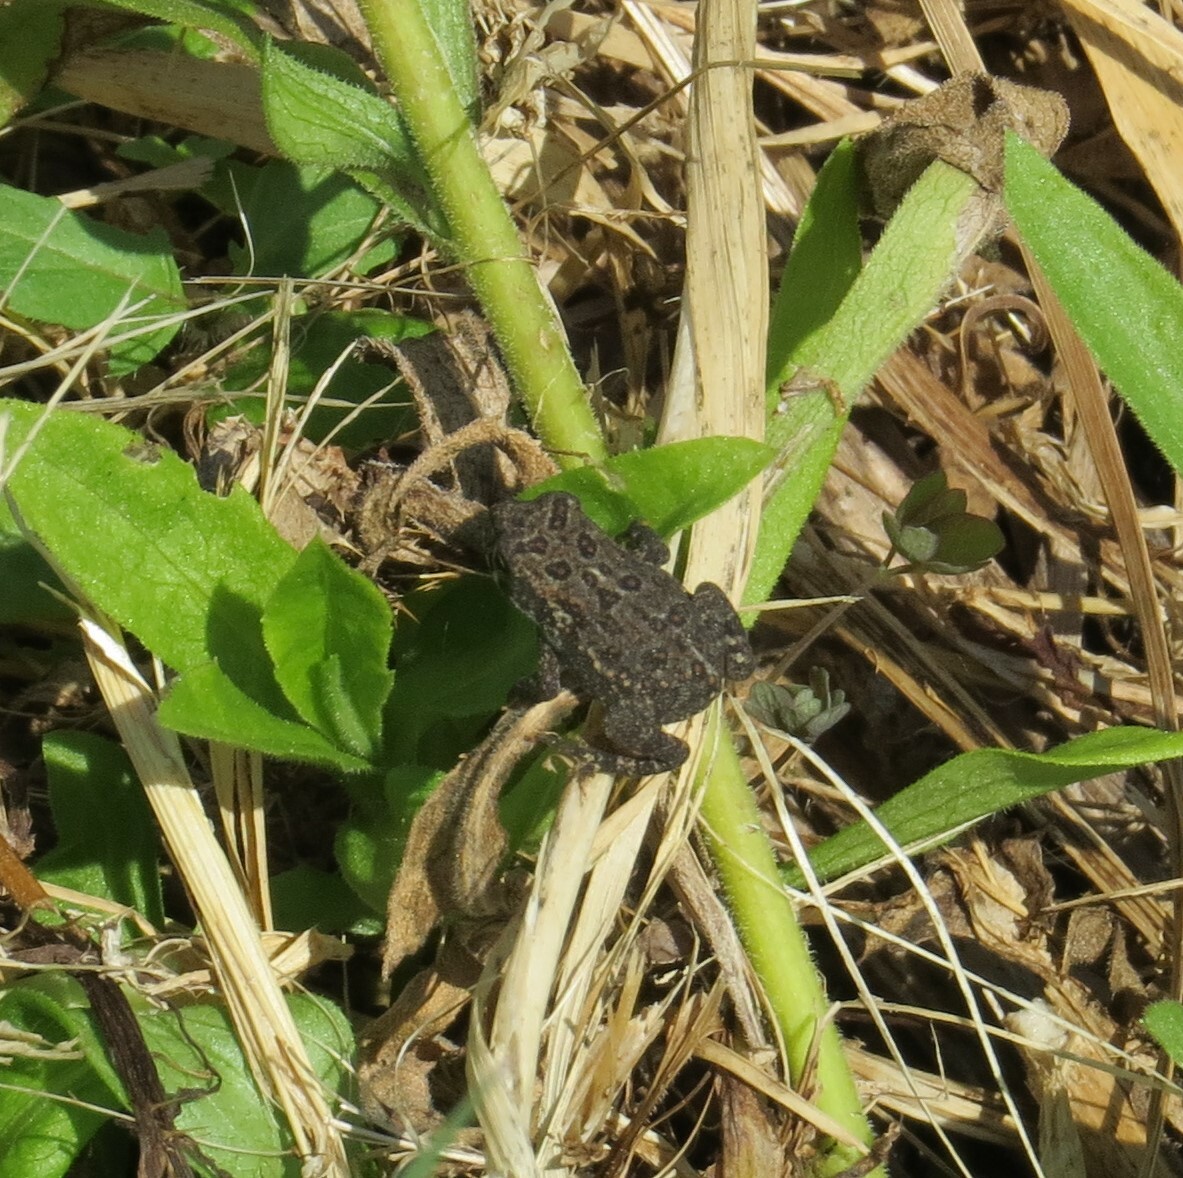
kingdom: Animalia
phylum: Chordata
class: Amphibia
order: Anura
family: Bufonidae
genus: Anaxyrus
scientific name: Anaxyrus americanus
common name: American toad
